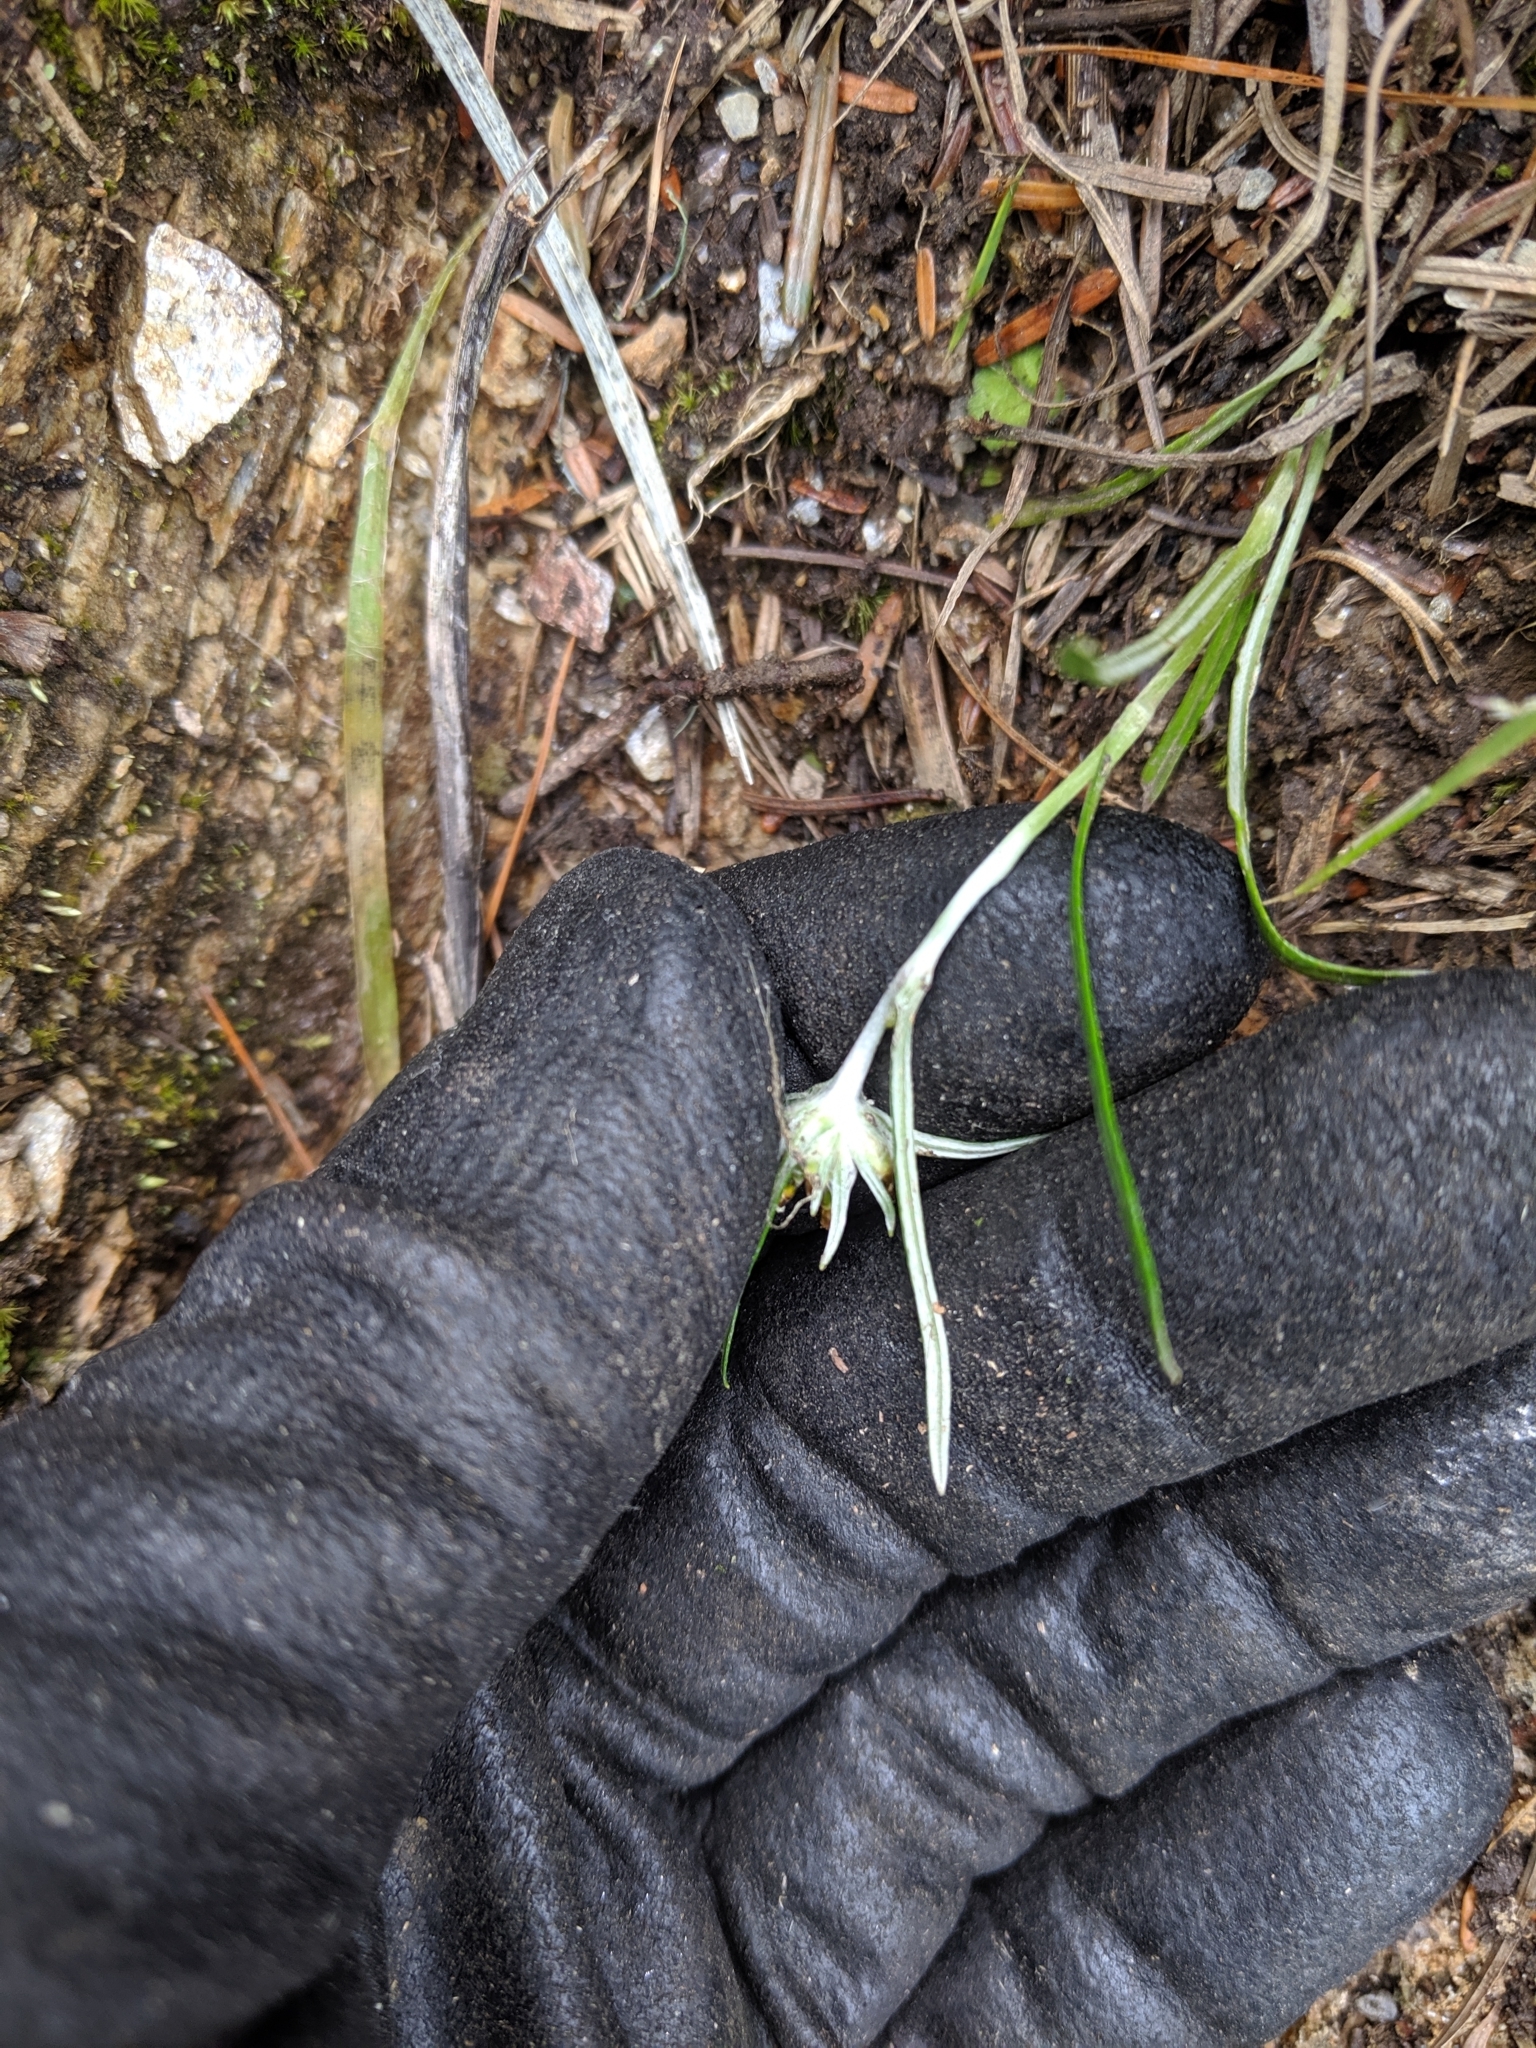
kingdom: Plantae
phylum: Tracheophyta
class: Magnoliopsida
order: Asterales
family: Asteraceae
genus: Euchiton
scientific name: Euchiton japonicus
